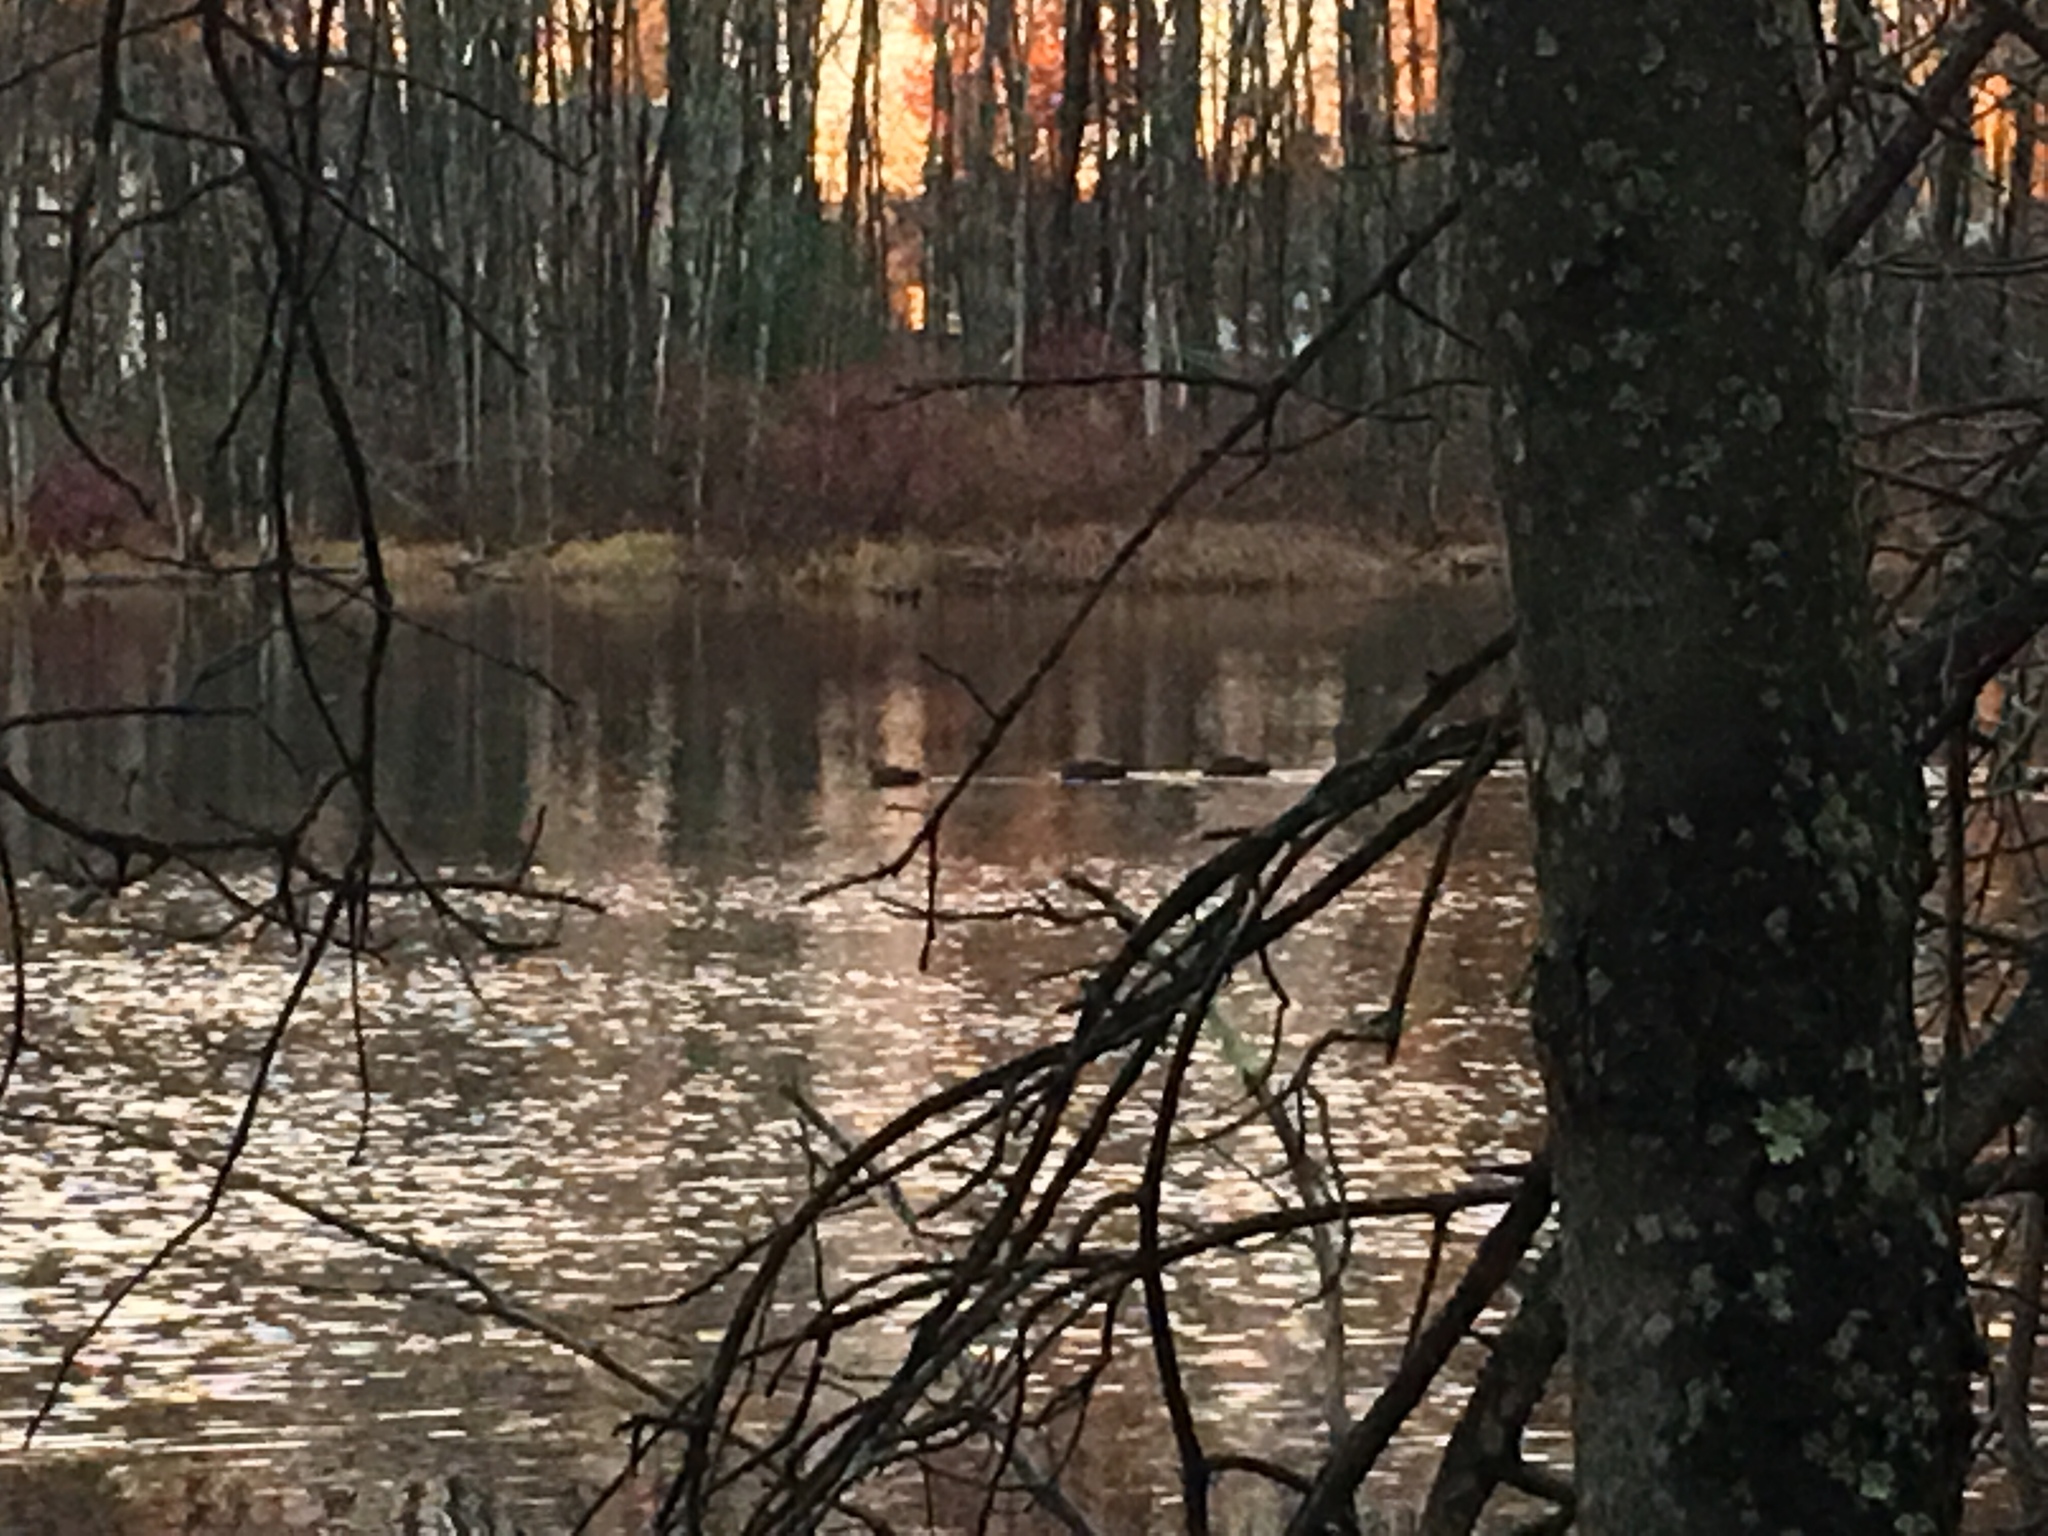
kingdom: Animalia
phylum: Chordata
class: Aves
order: Anseriformes
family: Anatidae
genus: Anas
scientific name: Anas platyrhynchos
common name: Mallard
